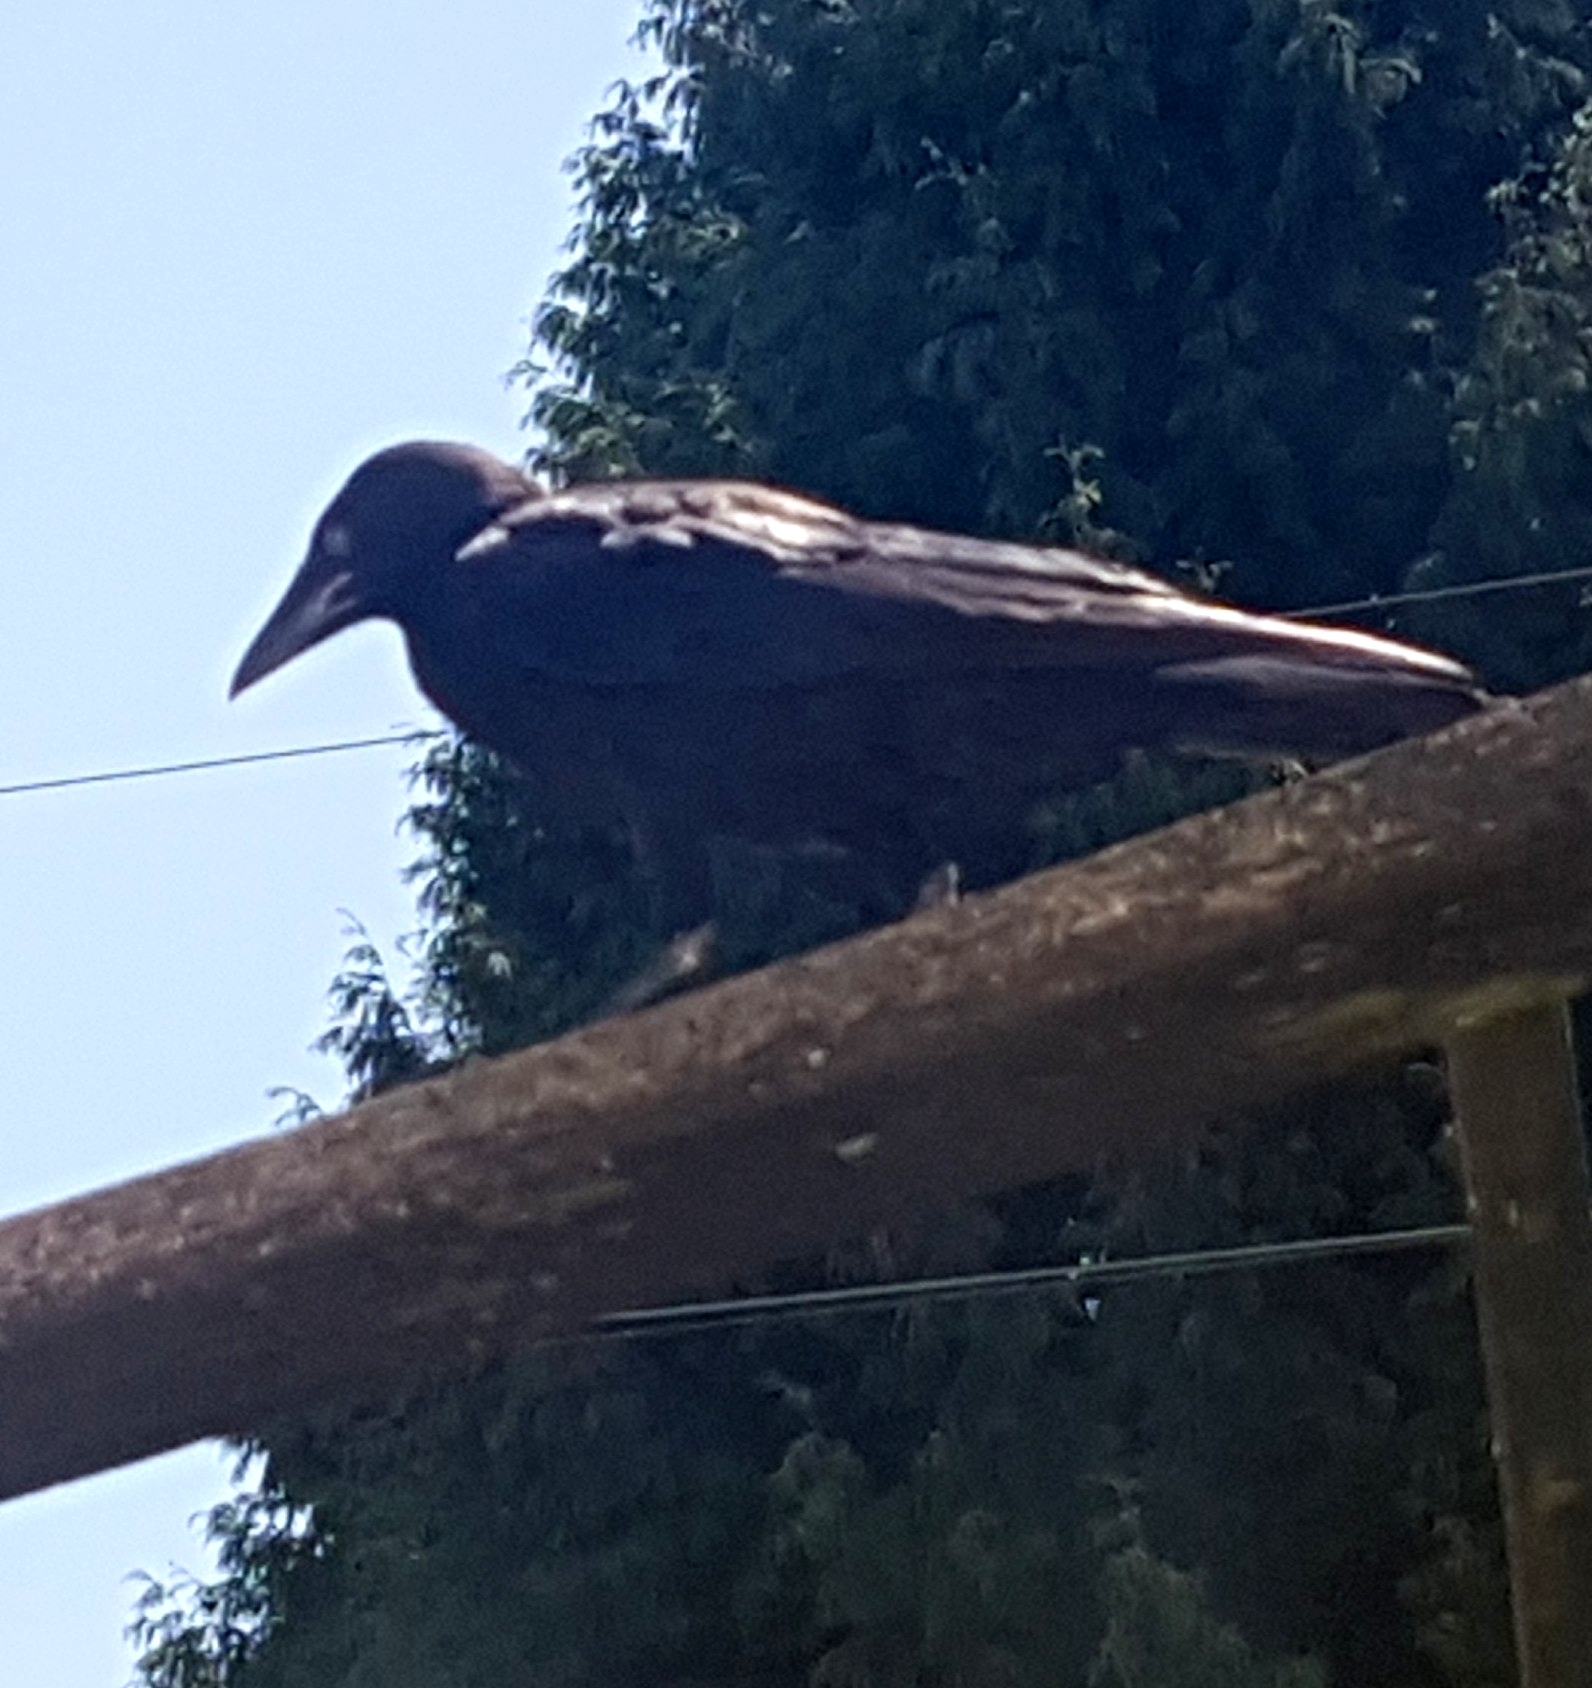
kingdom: Animalia
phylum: Chordata
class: Aves
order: Passeriformes
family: Corvidae
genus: Corvus
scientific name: Corvus brachyrhynchos
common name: American crow
